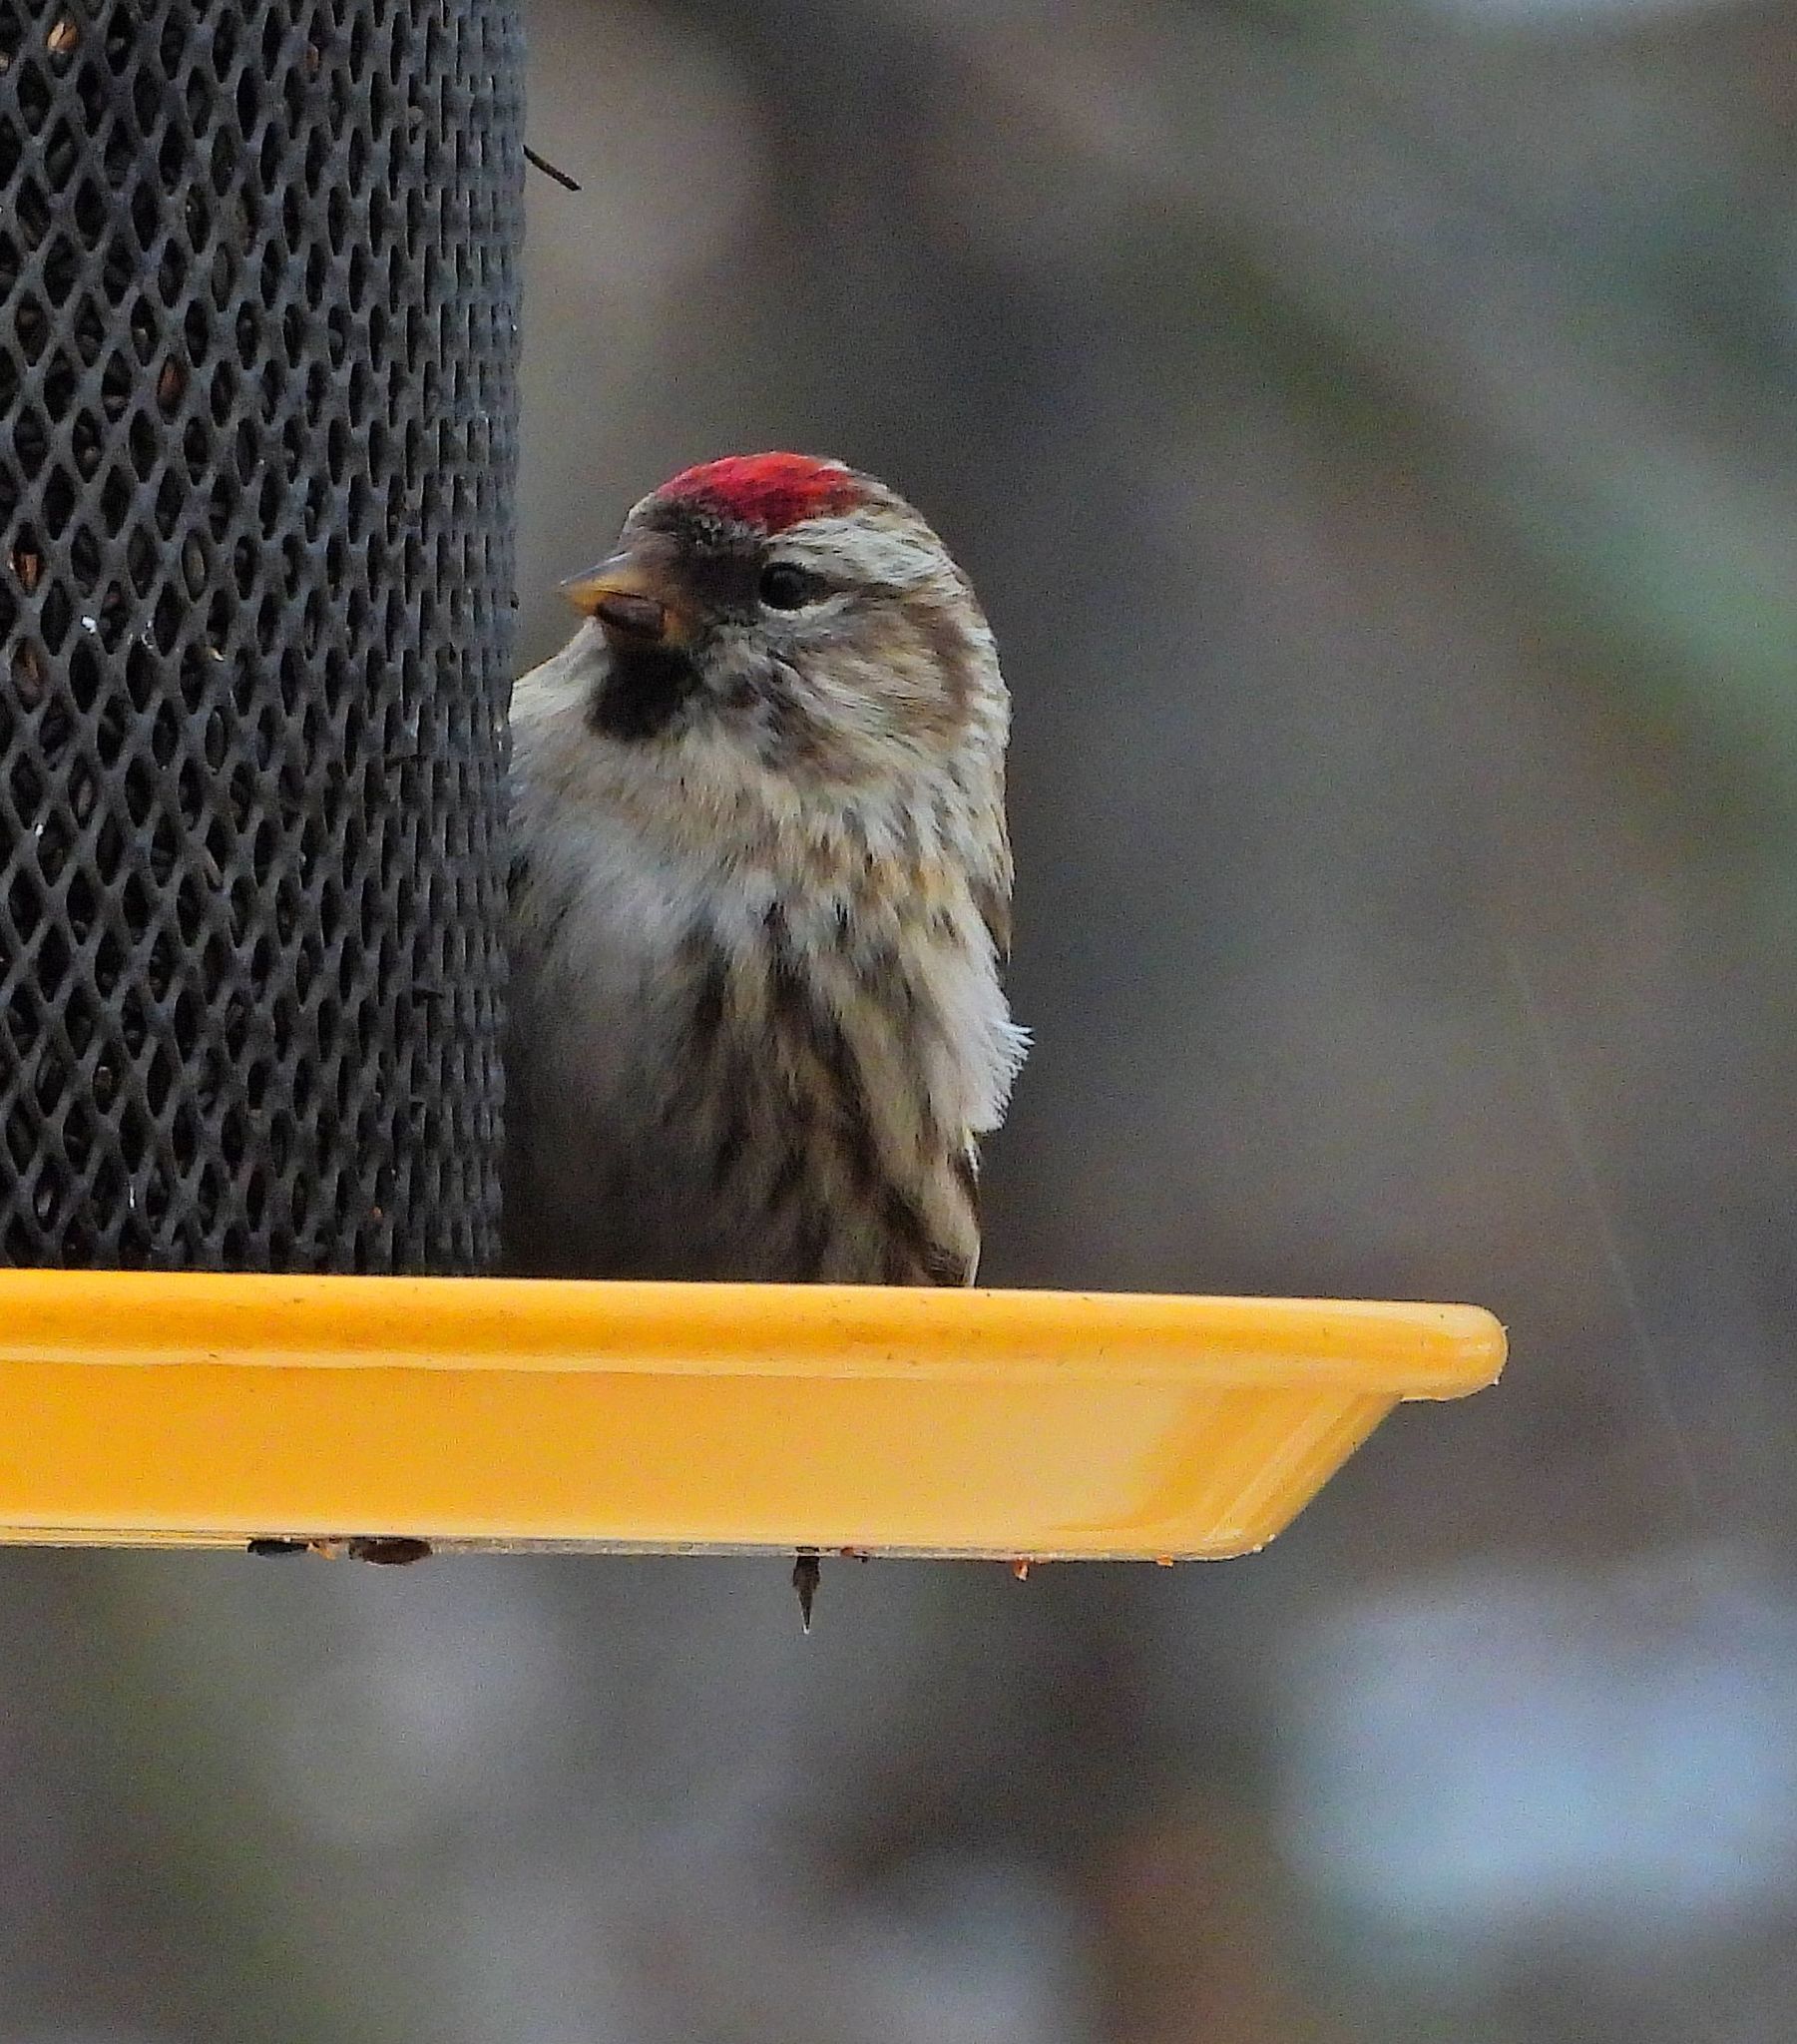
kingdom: Animalia
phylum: Chordata
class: Aves
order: Passeriformes
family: Fringillidae
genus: Acanthis
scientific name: Acanthis flammea
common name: Common redpoll
